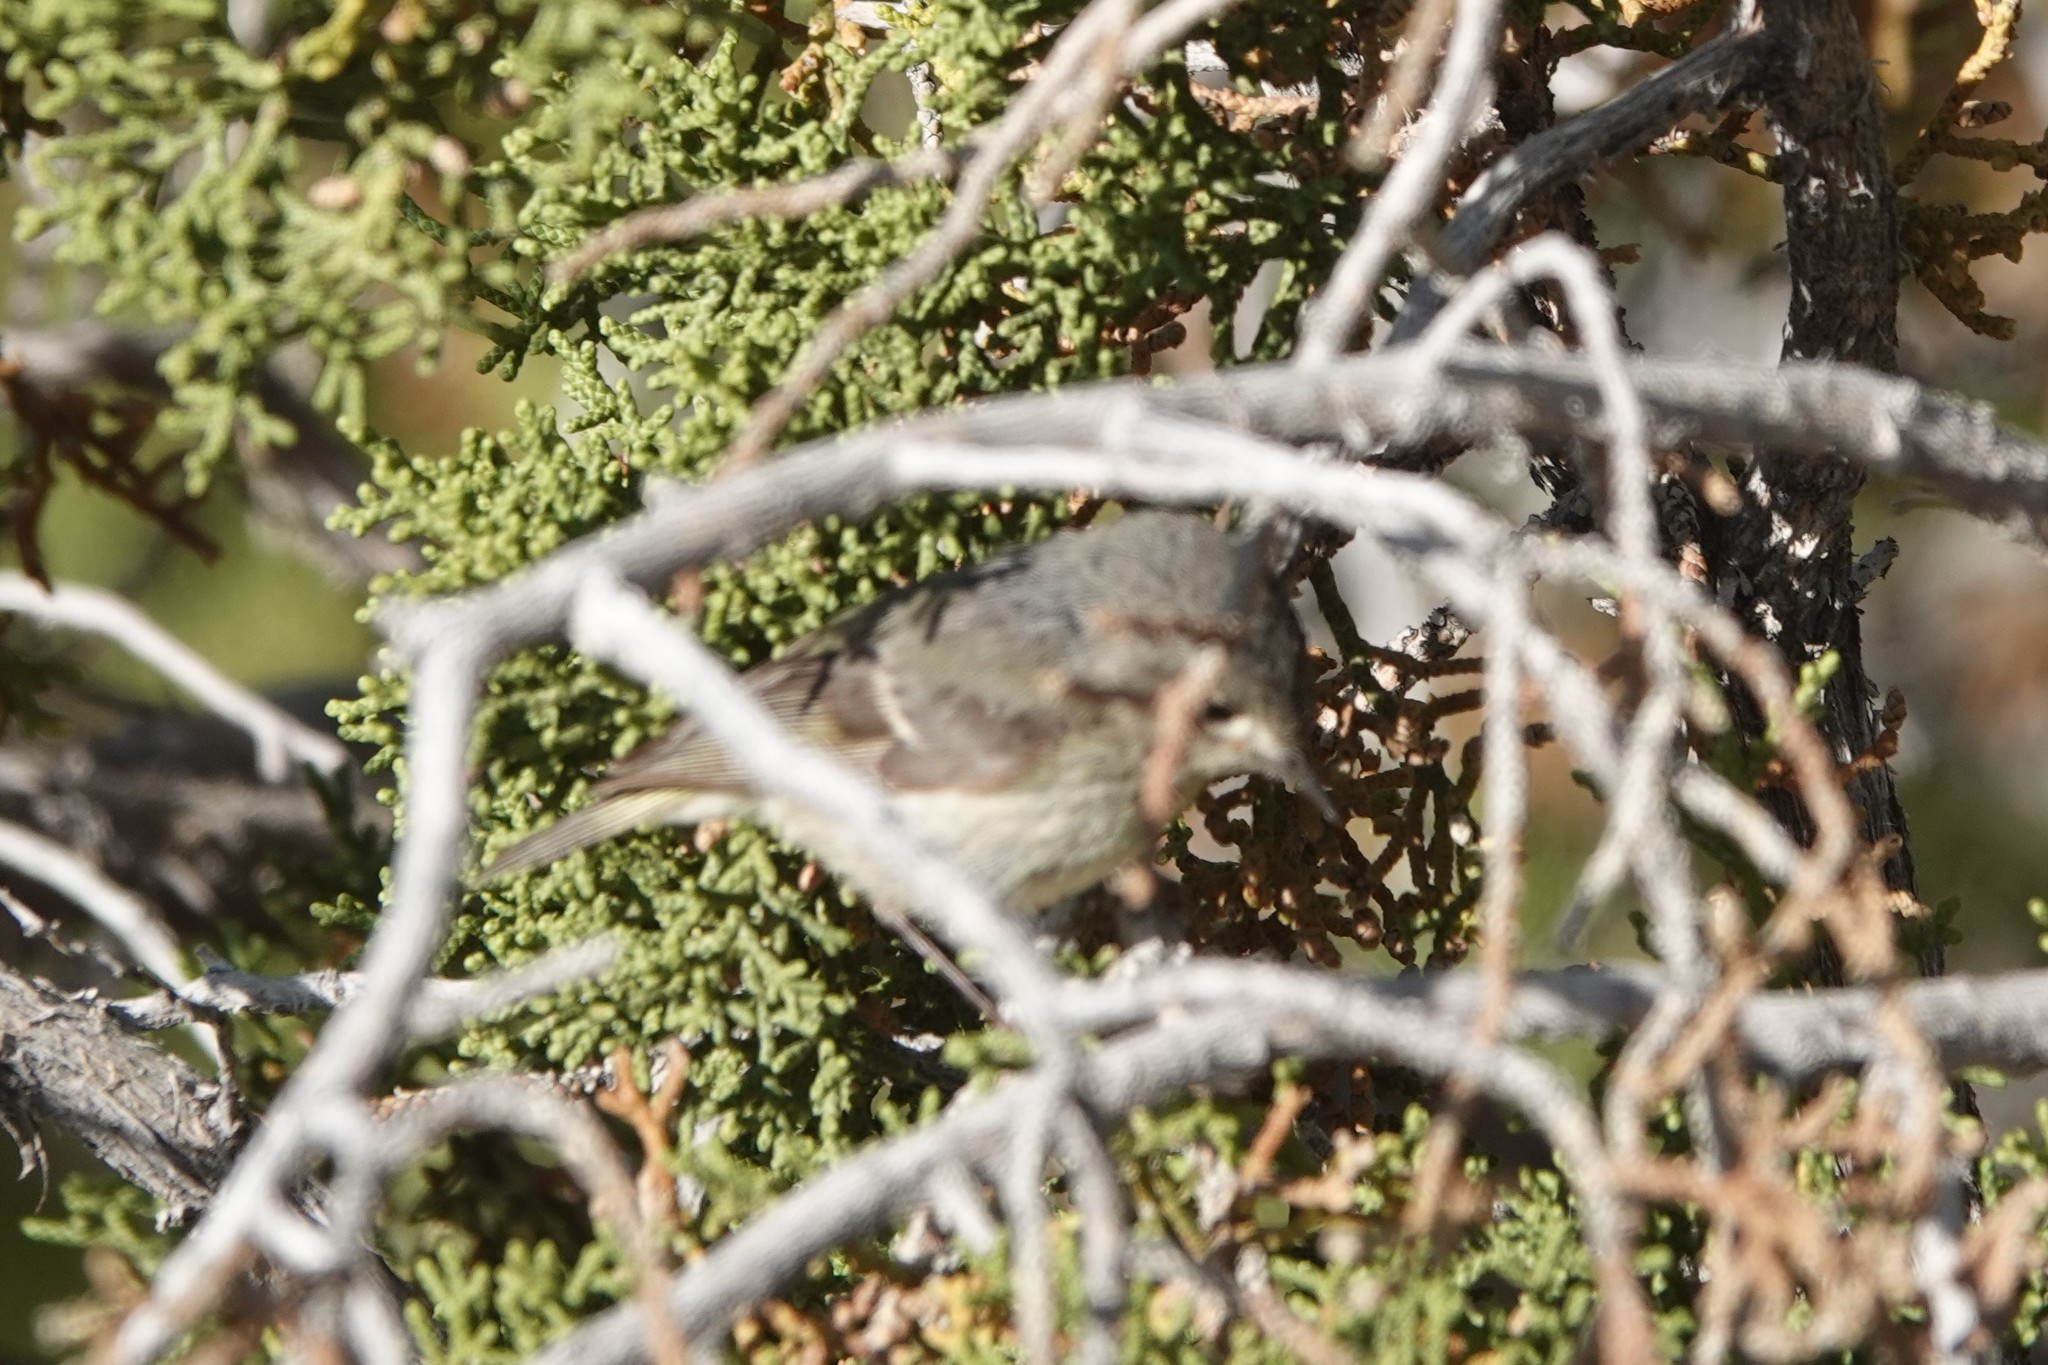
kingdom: Animalia
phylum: Chordata
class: Aves
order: Passeriformes
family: Regulidae
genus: Regulus
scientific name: Regulus calendula
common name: Ruby-crowned kinglet
